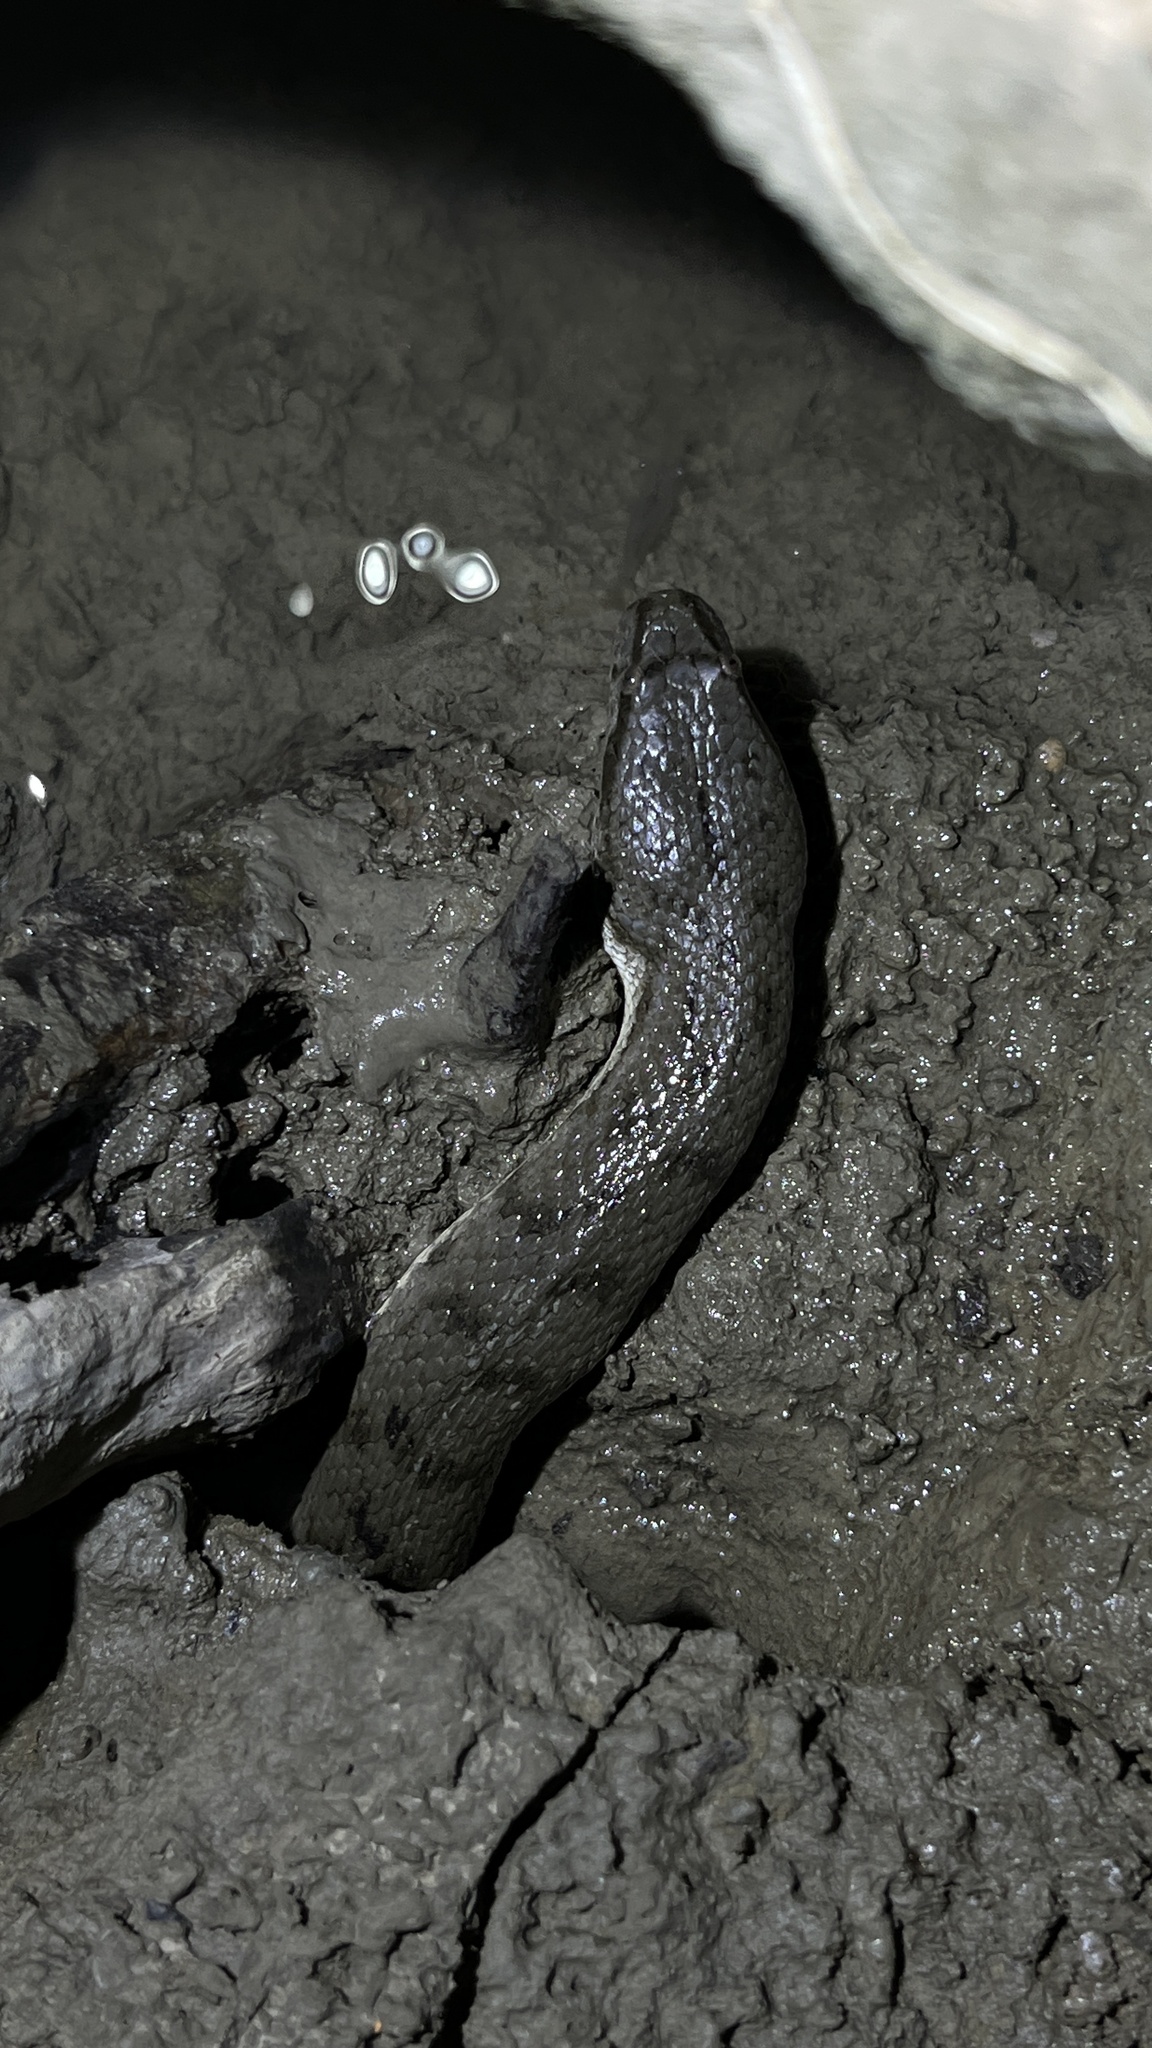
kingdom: Animalia
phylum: Chordata
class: Squamata
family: Homalopsidae
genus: Cerberus
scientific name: Cerberus schneiderii
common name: Southeast asian bockadam
